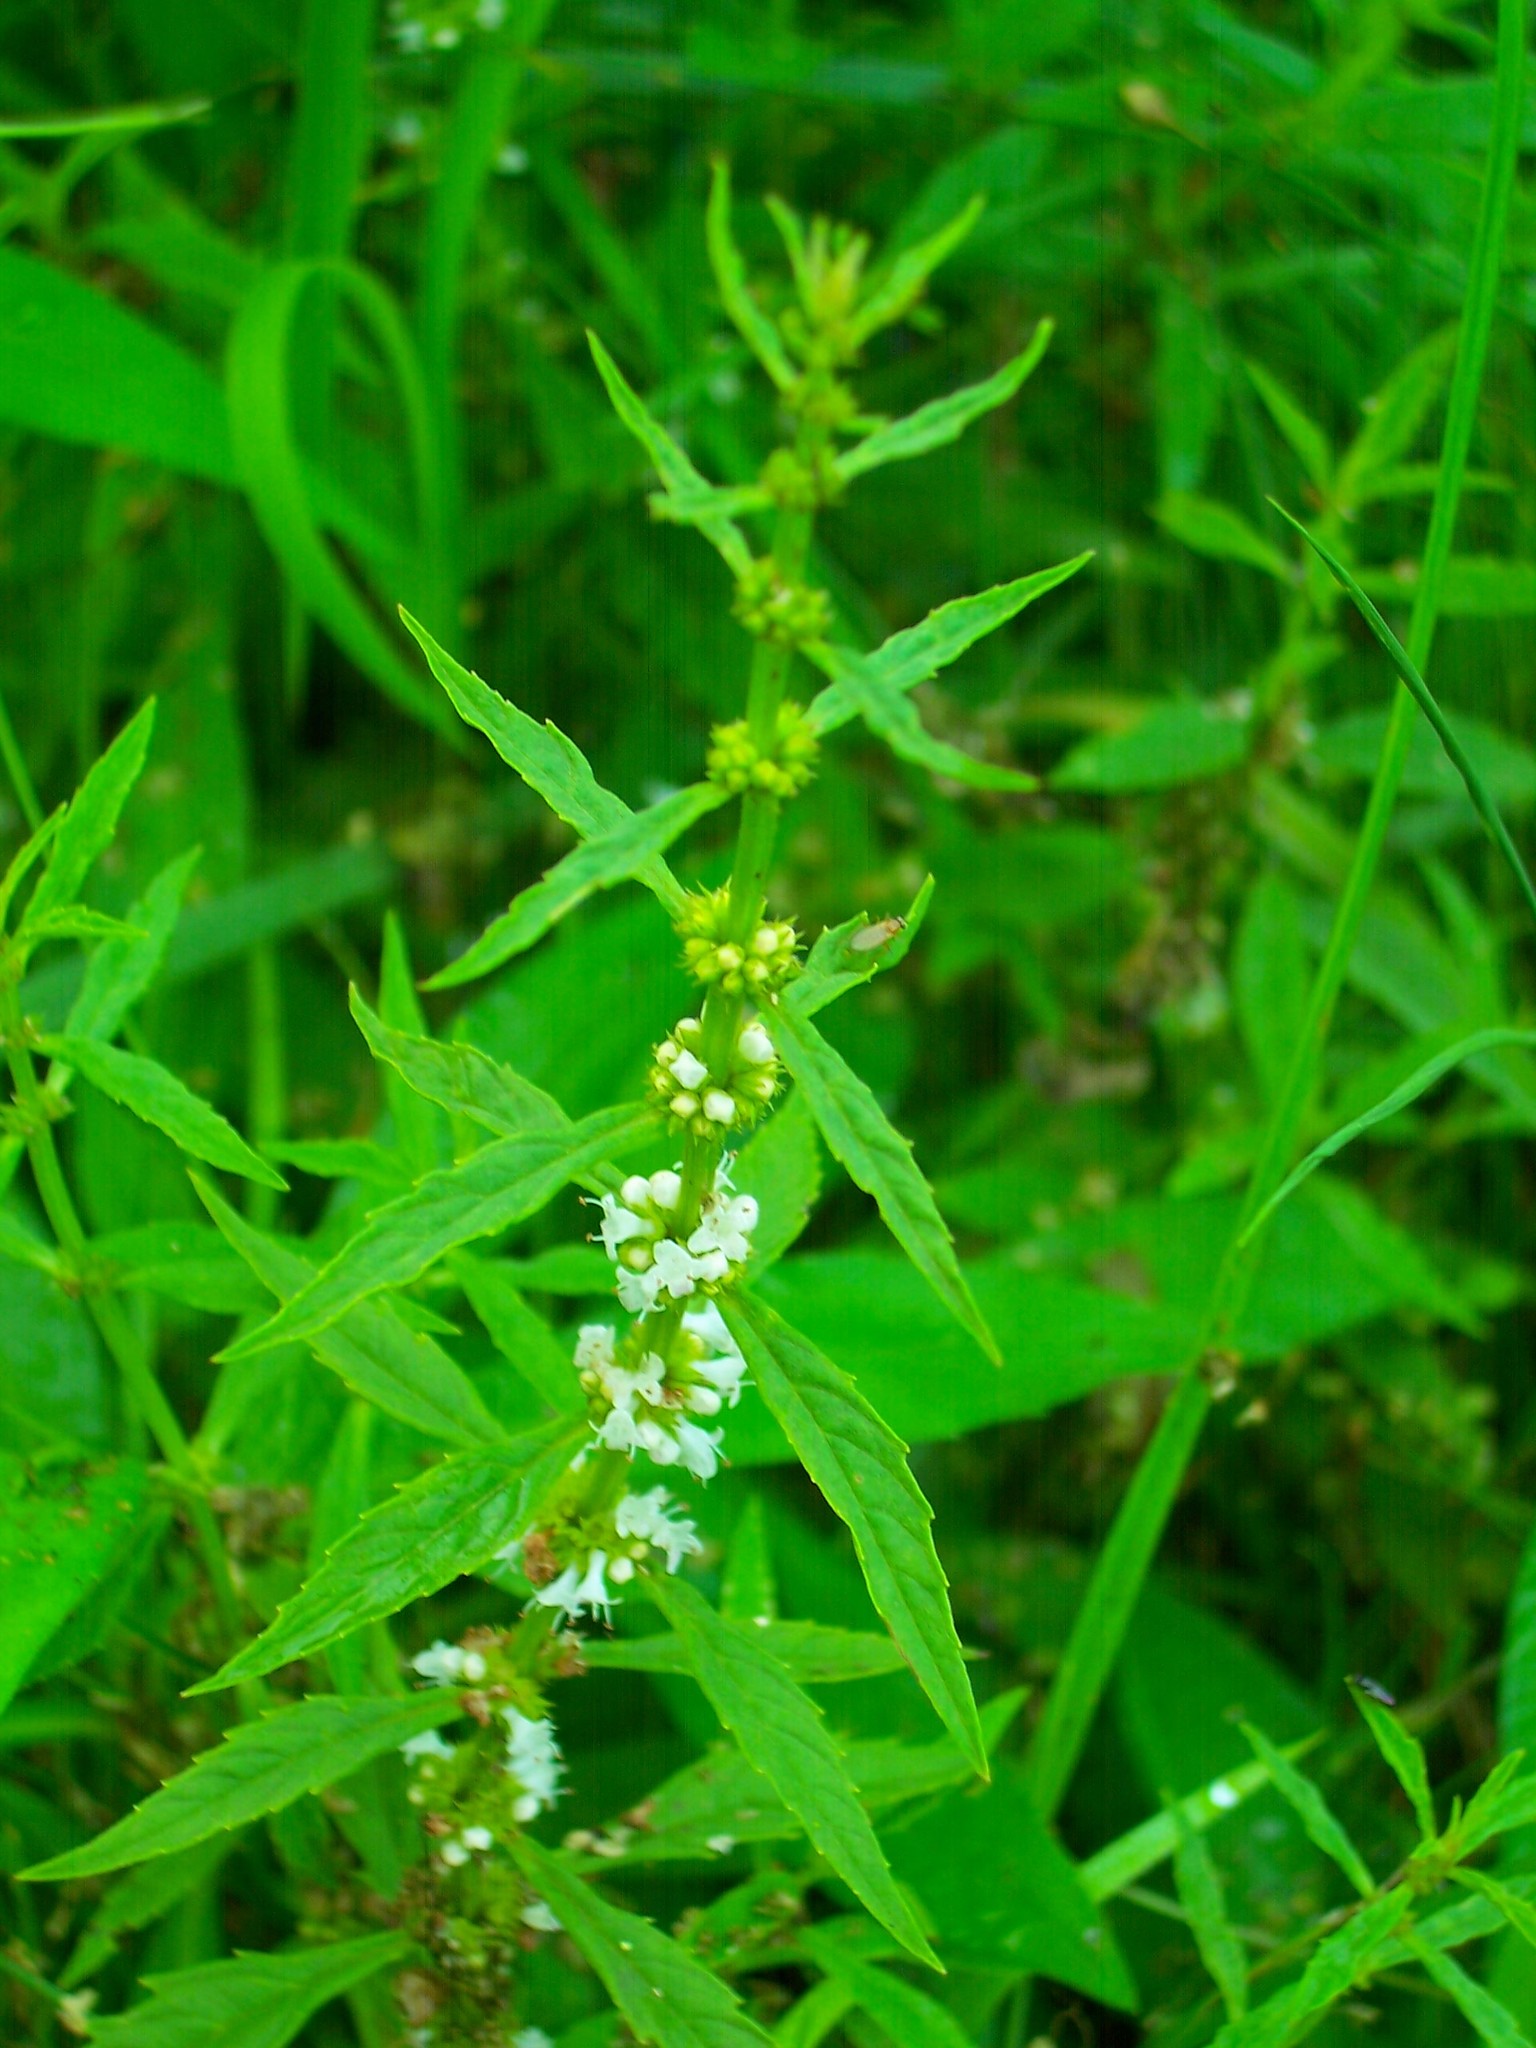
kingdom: Plantae
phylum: Tracheophyta
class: Magnoliopsida
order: Lamiales
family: Lamiaceae
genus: Lycopus
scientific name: Lycopus uniflorus
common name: Northern bugleweed
